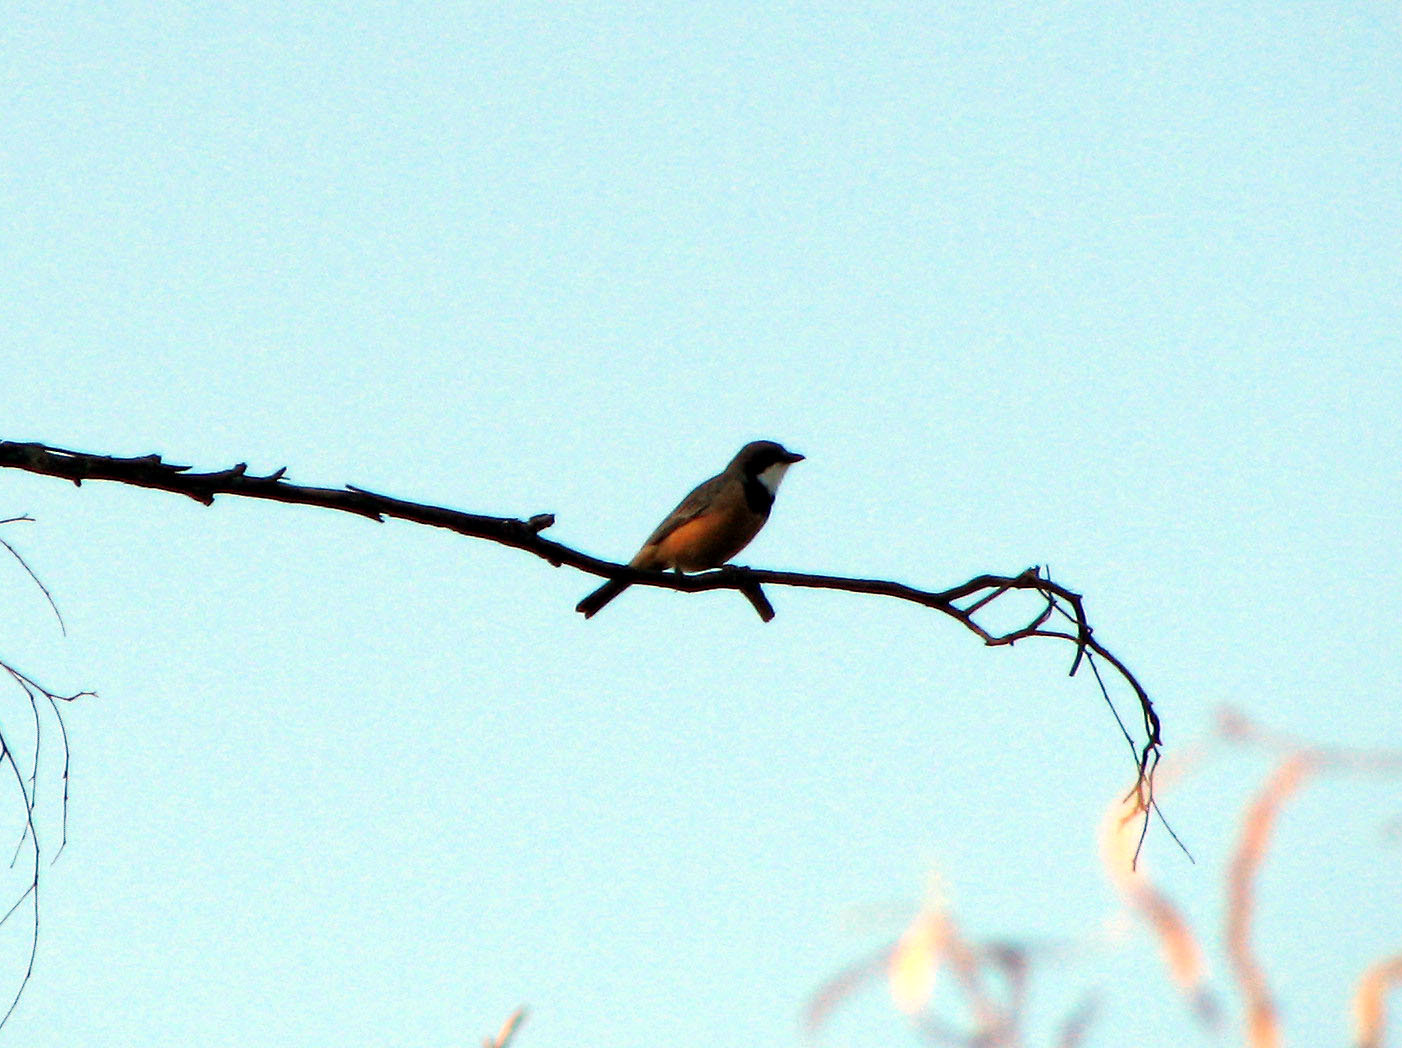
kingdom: Animalia
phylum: Chordata
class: Aves
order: Passeriformes
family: Pachycephalidae
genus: Pachycephala
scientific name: Pachycephala rufiventris
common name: Rufous whistler
